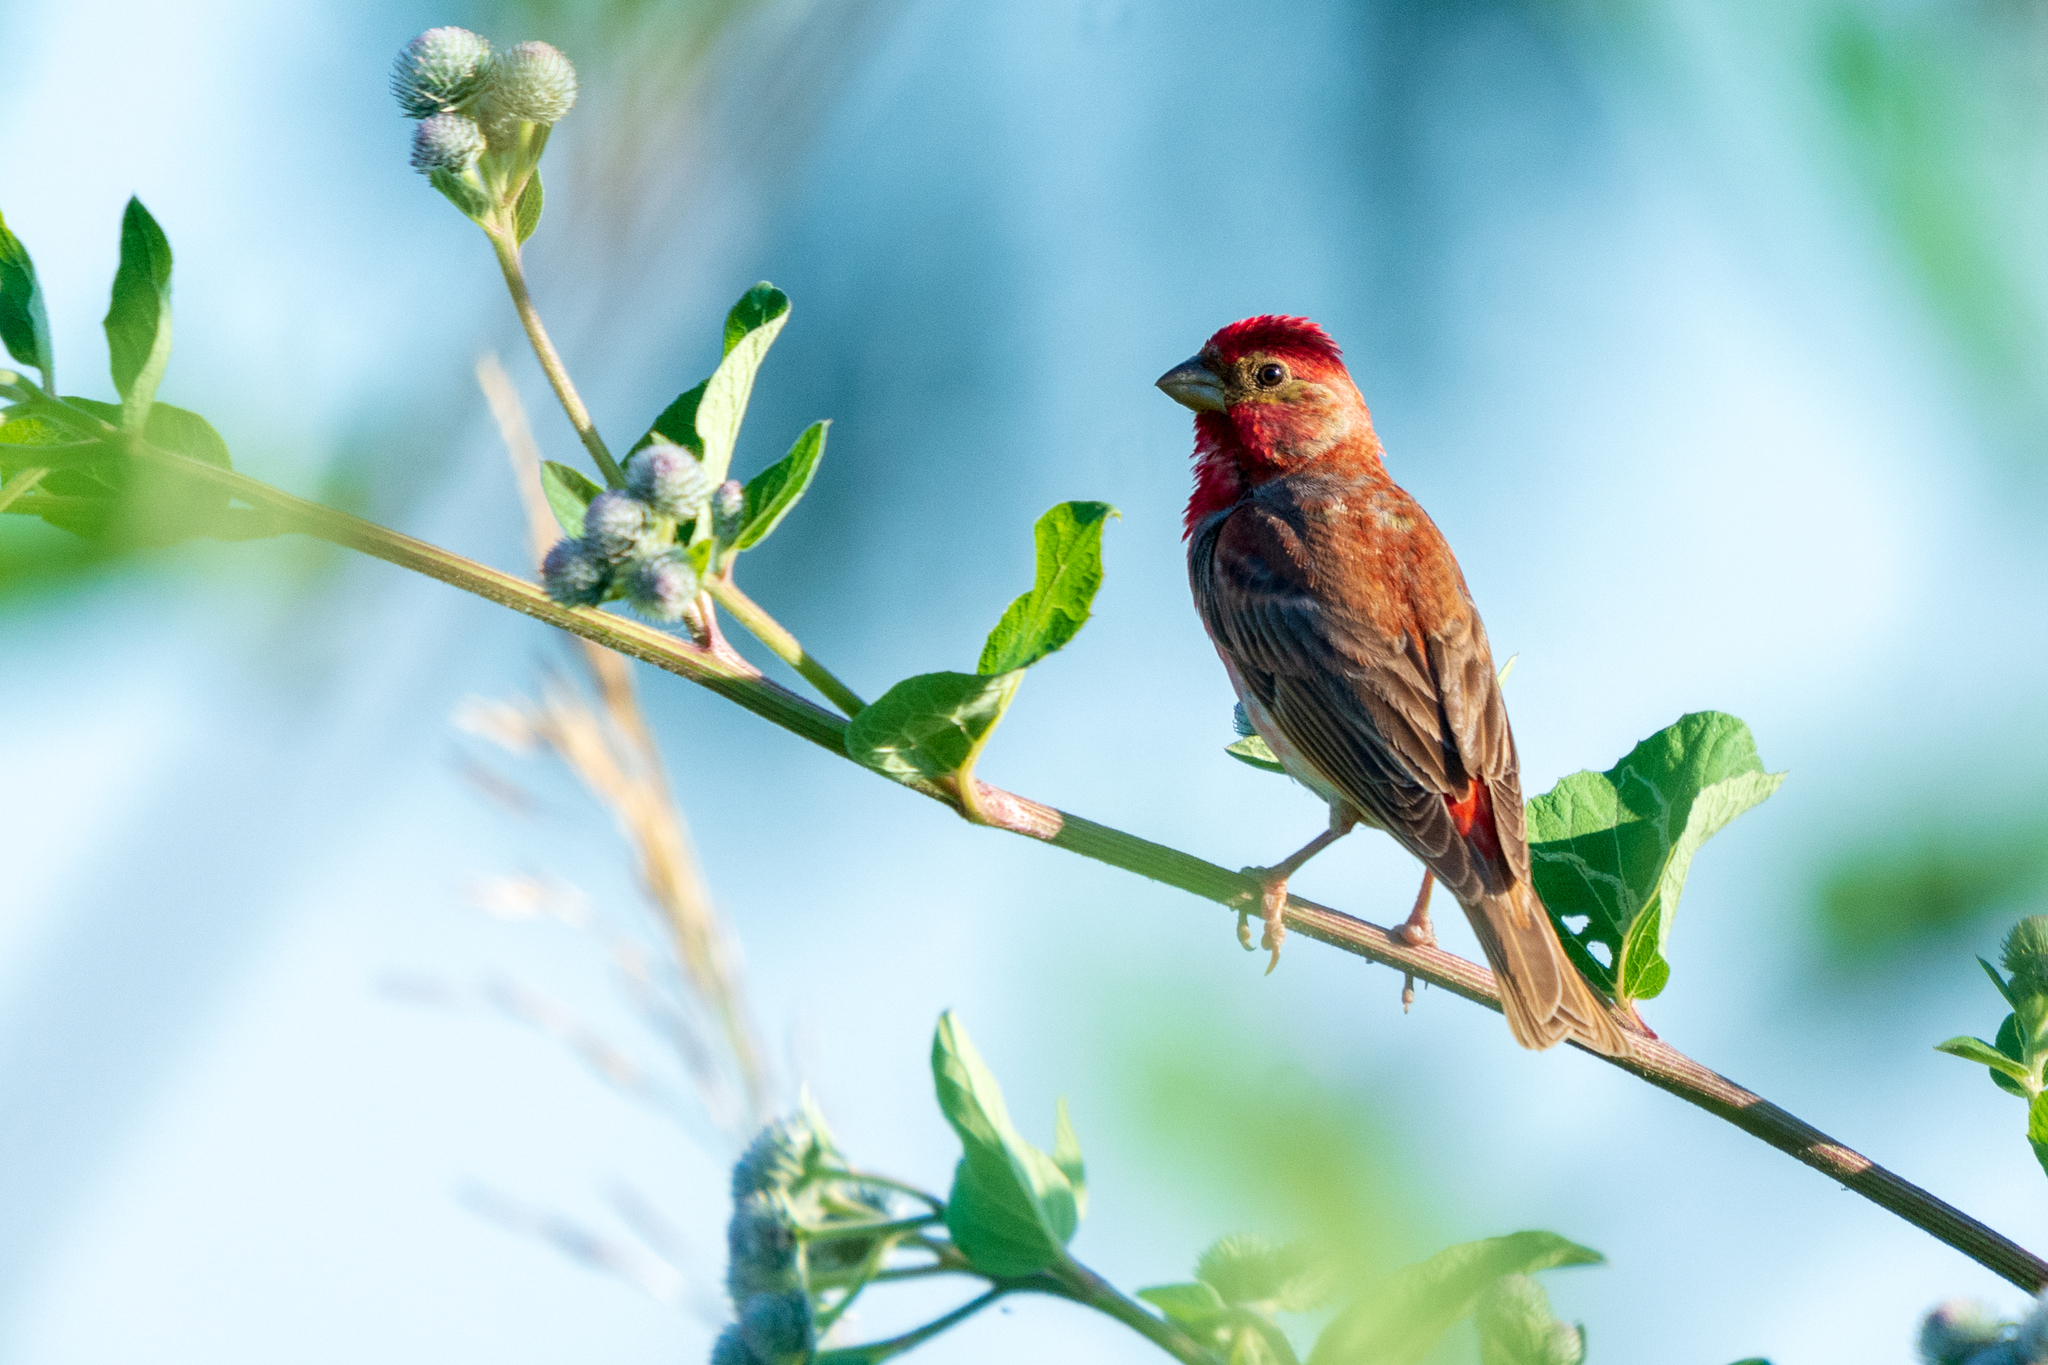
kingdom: Animalia
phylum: Chordata
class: Aves
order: Passeriformes
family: Fringillidae
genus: Carpodacus
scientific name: Carpodacus erythrinus
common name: Common rosefinch
